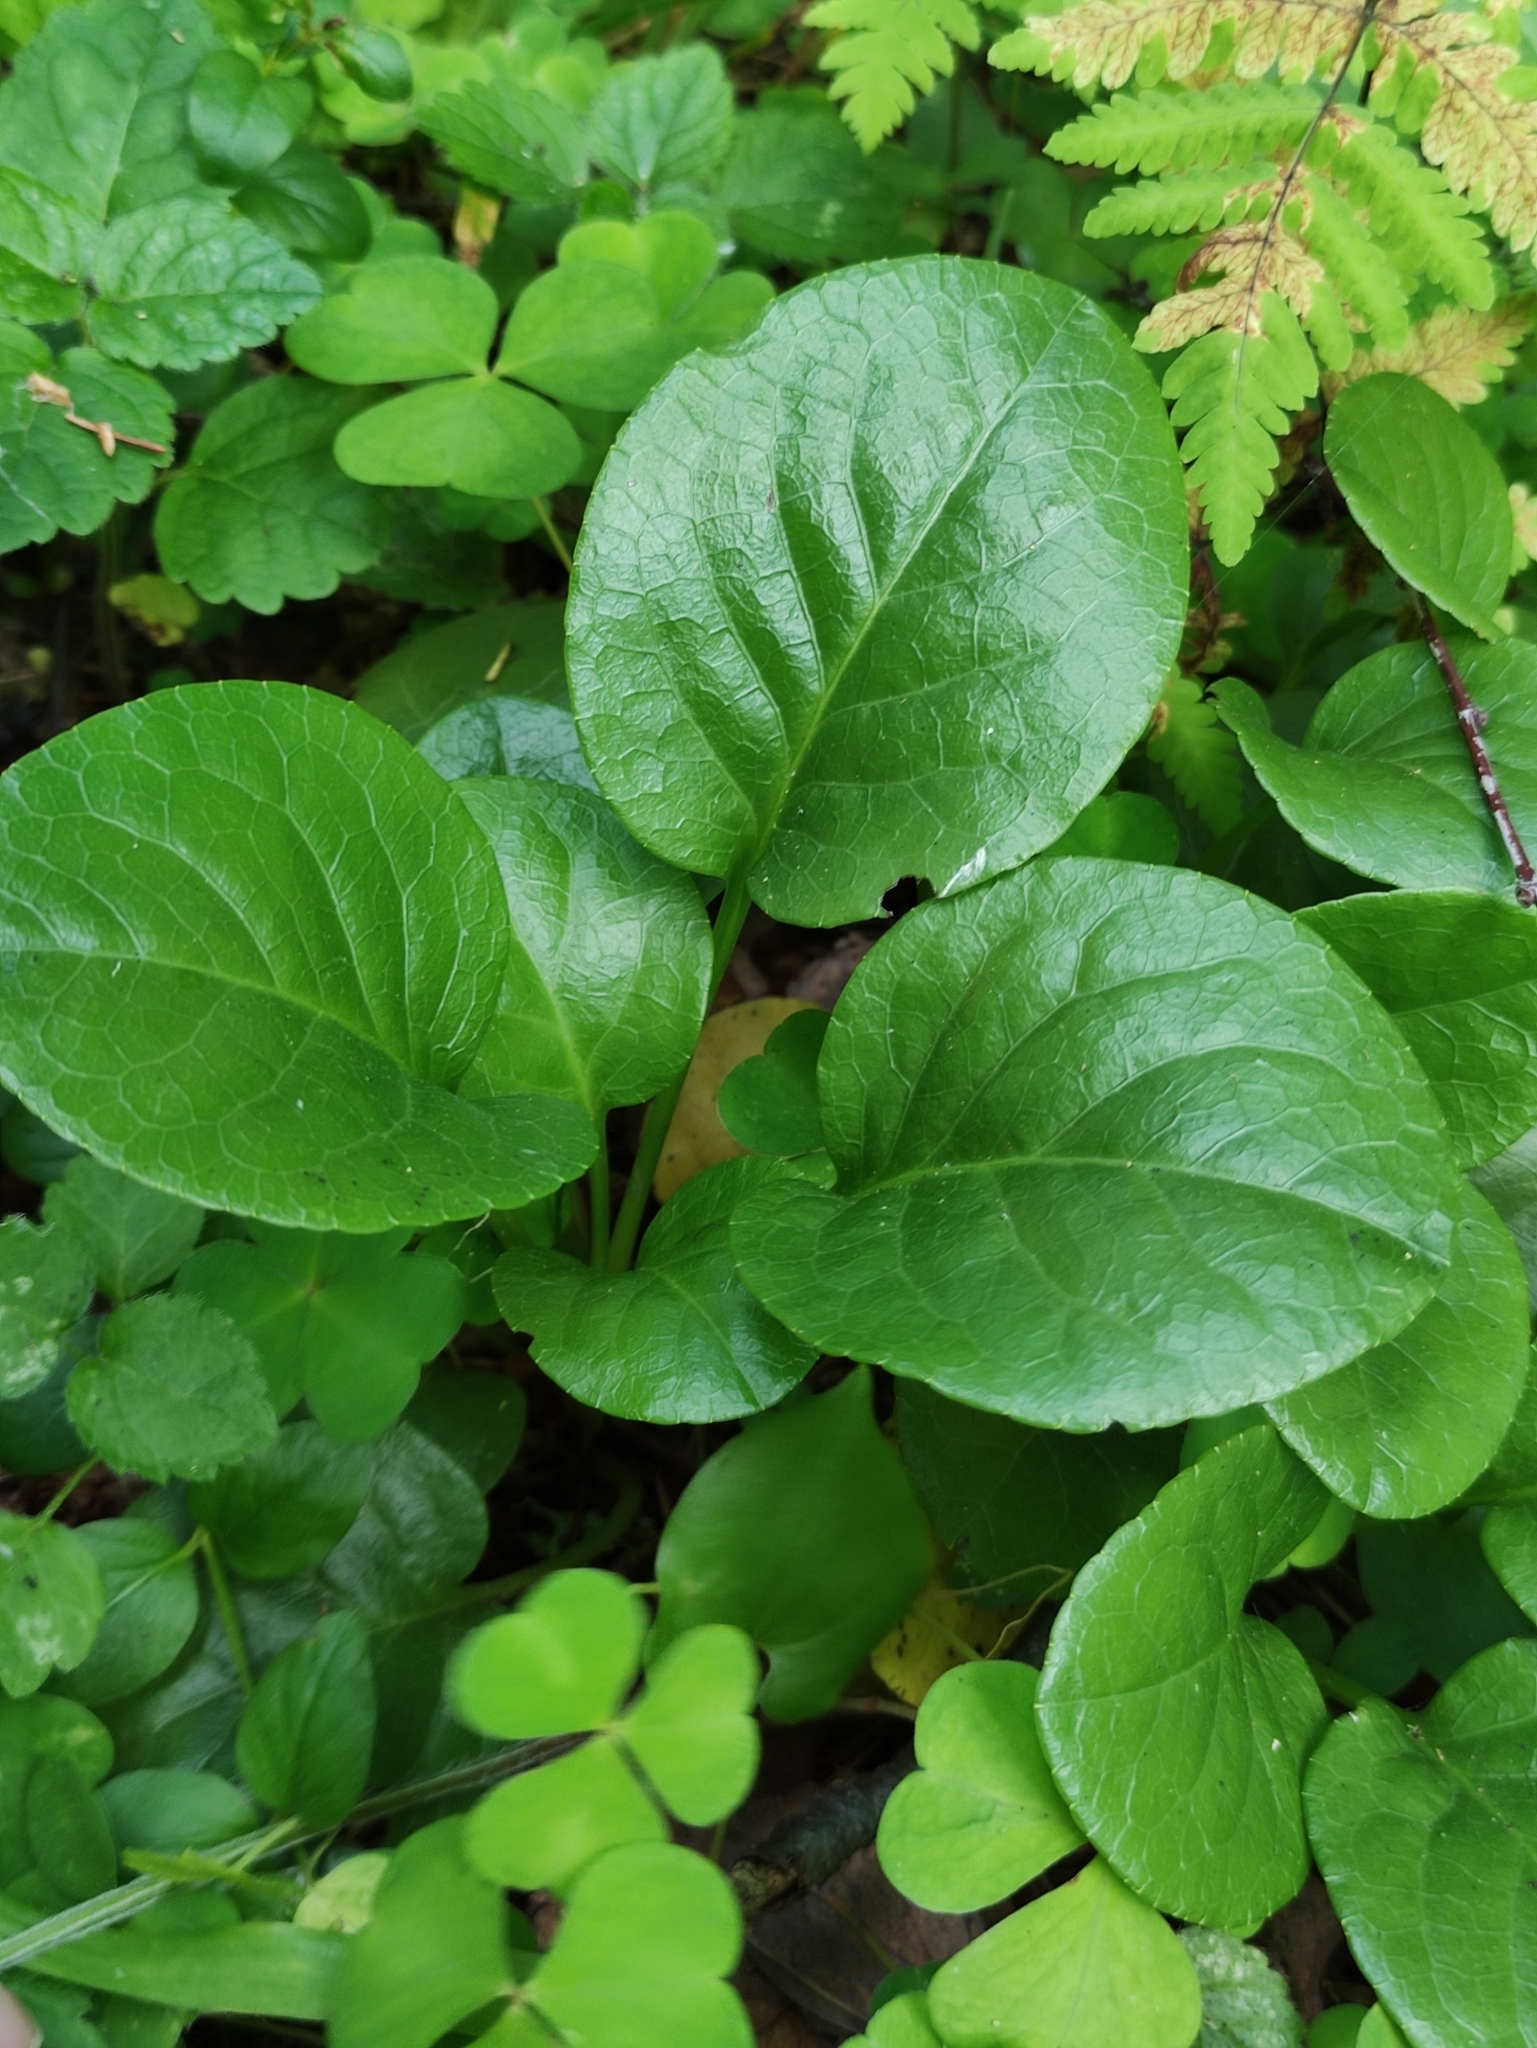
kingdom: Plantae
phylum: Tracheophyta
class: Magnoliopsida
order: Ericales
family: Ericaceae
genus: Pyrola
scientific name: Pyrola rotundifolia
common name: Round-leaved wintergreen
